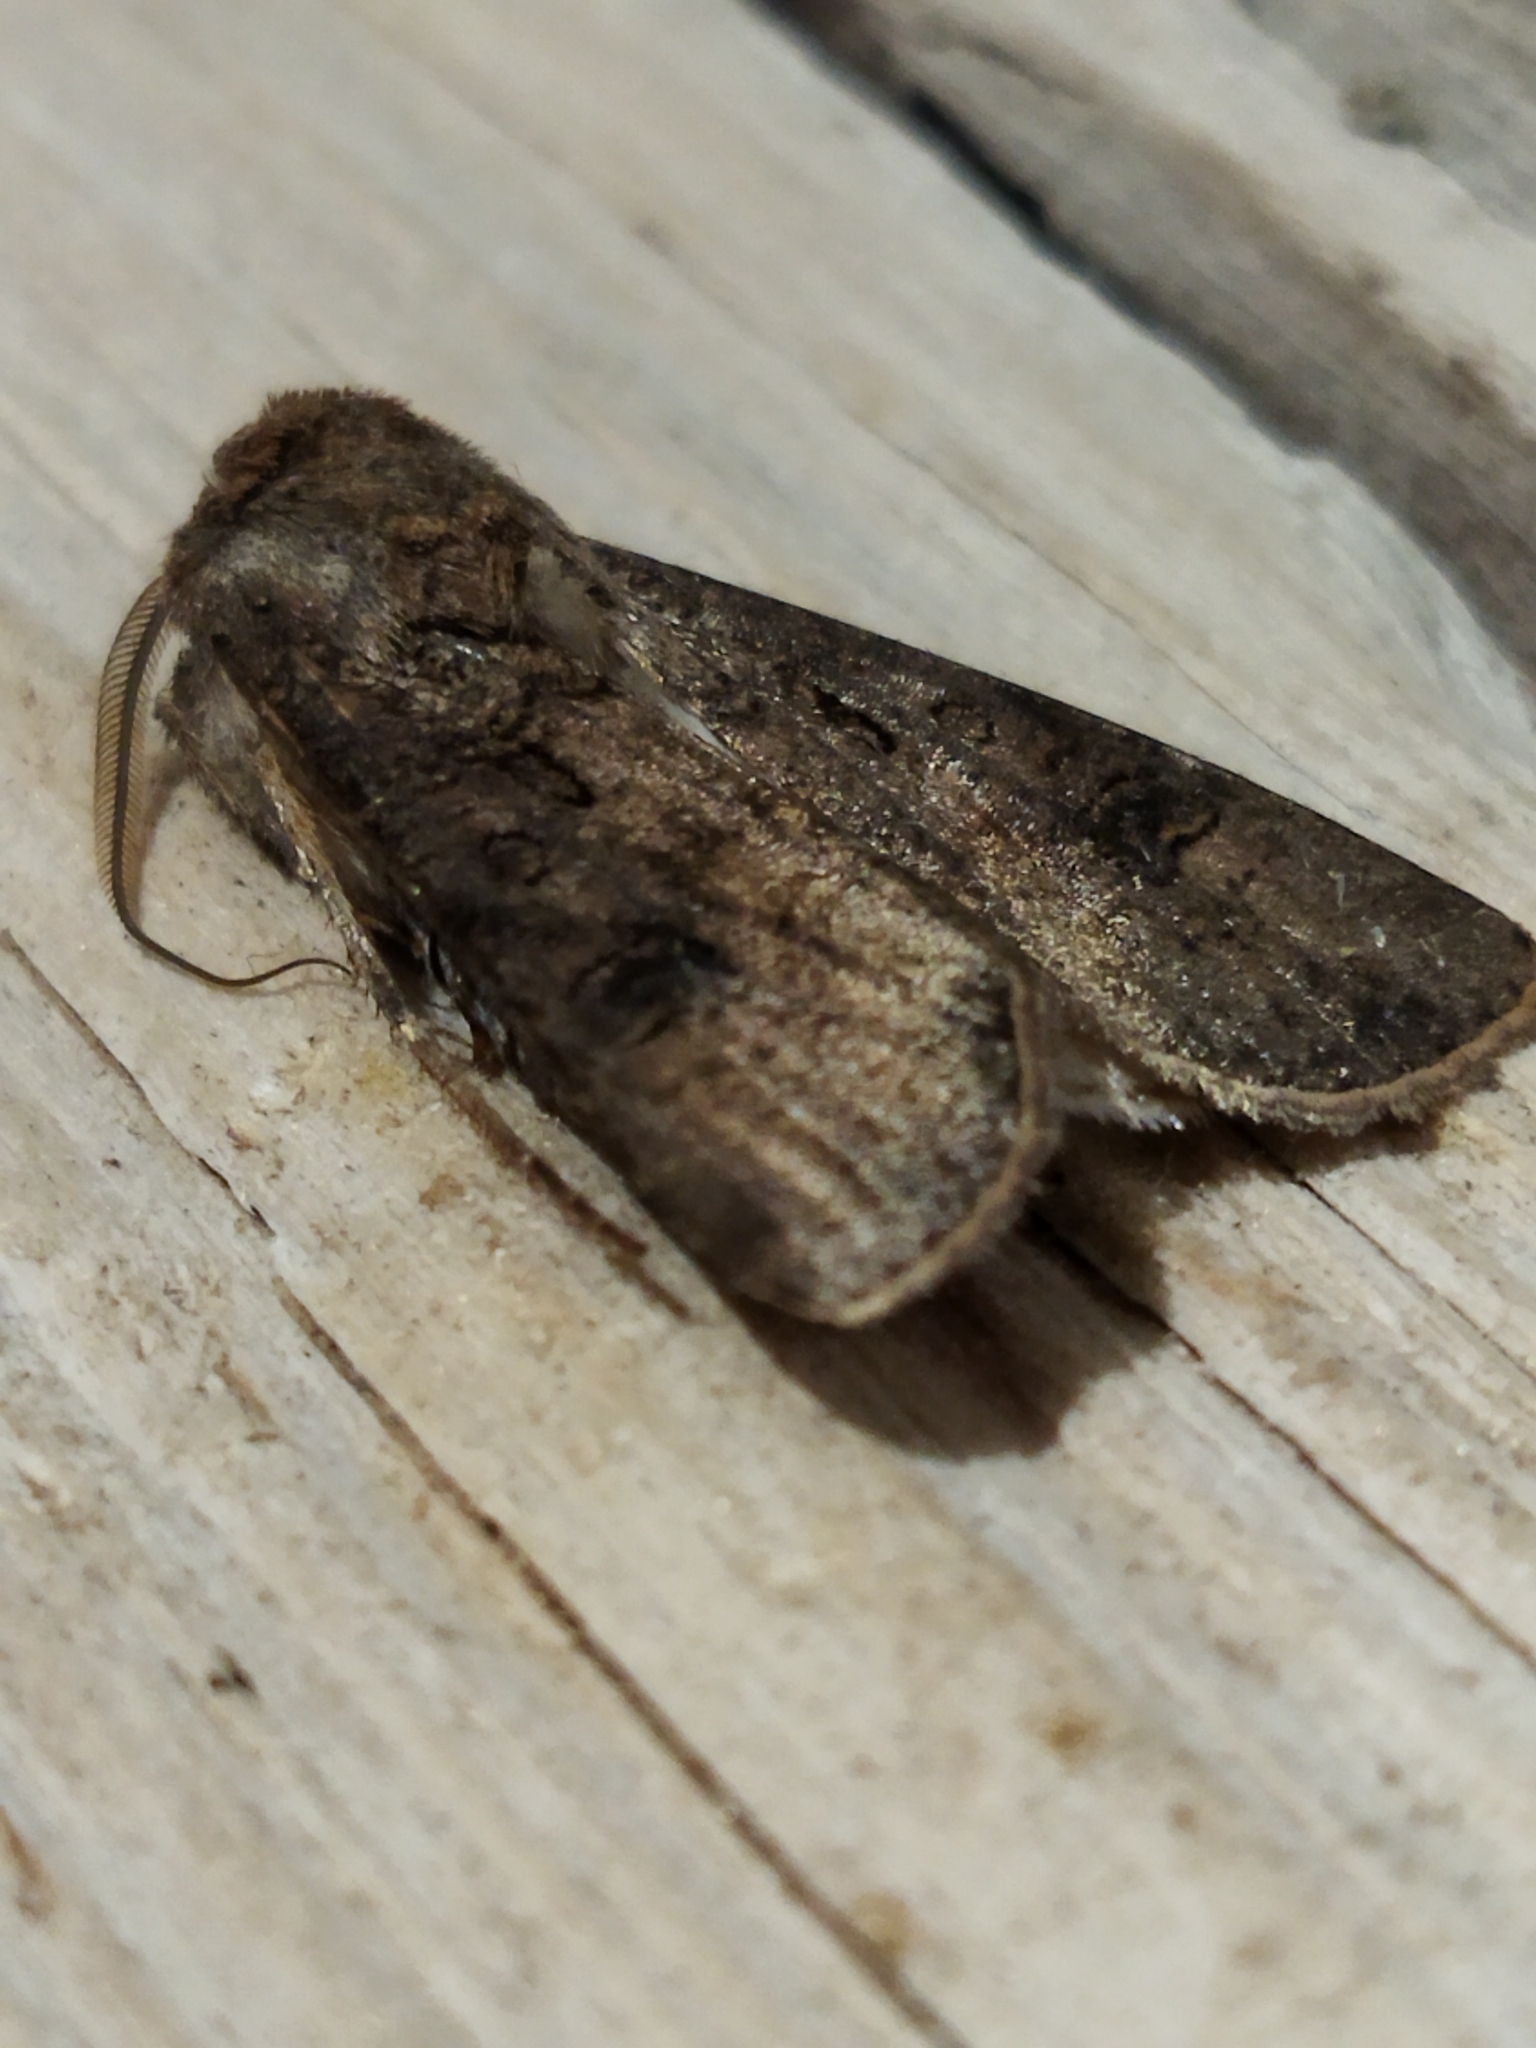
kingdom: Animalia
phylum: Arthropoda
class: Insecta
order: Lepidoptera
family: Noctuidae
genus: Agrotis
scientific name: Agrotis segetum
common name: Turnip moth
